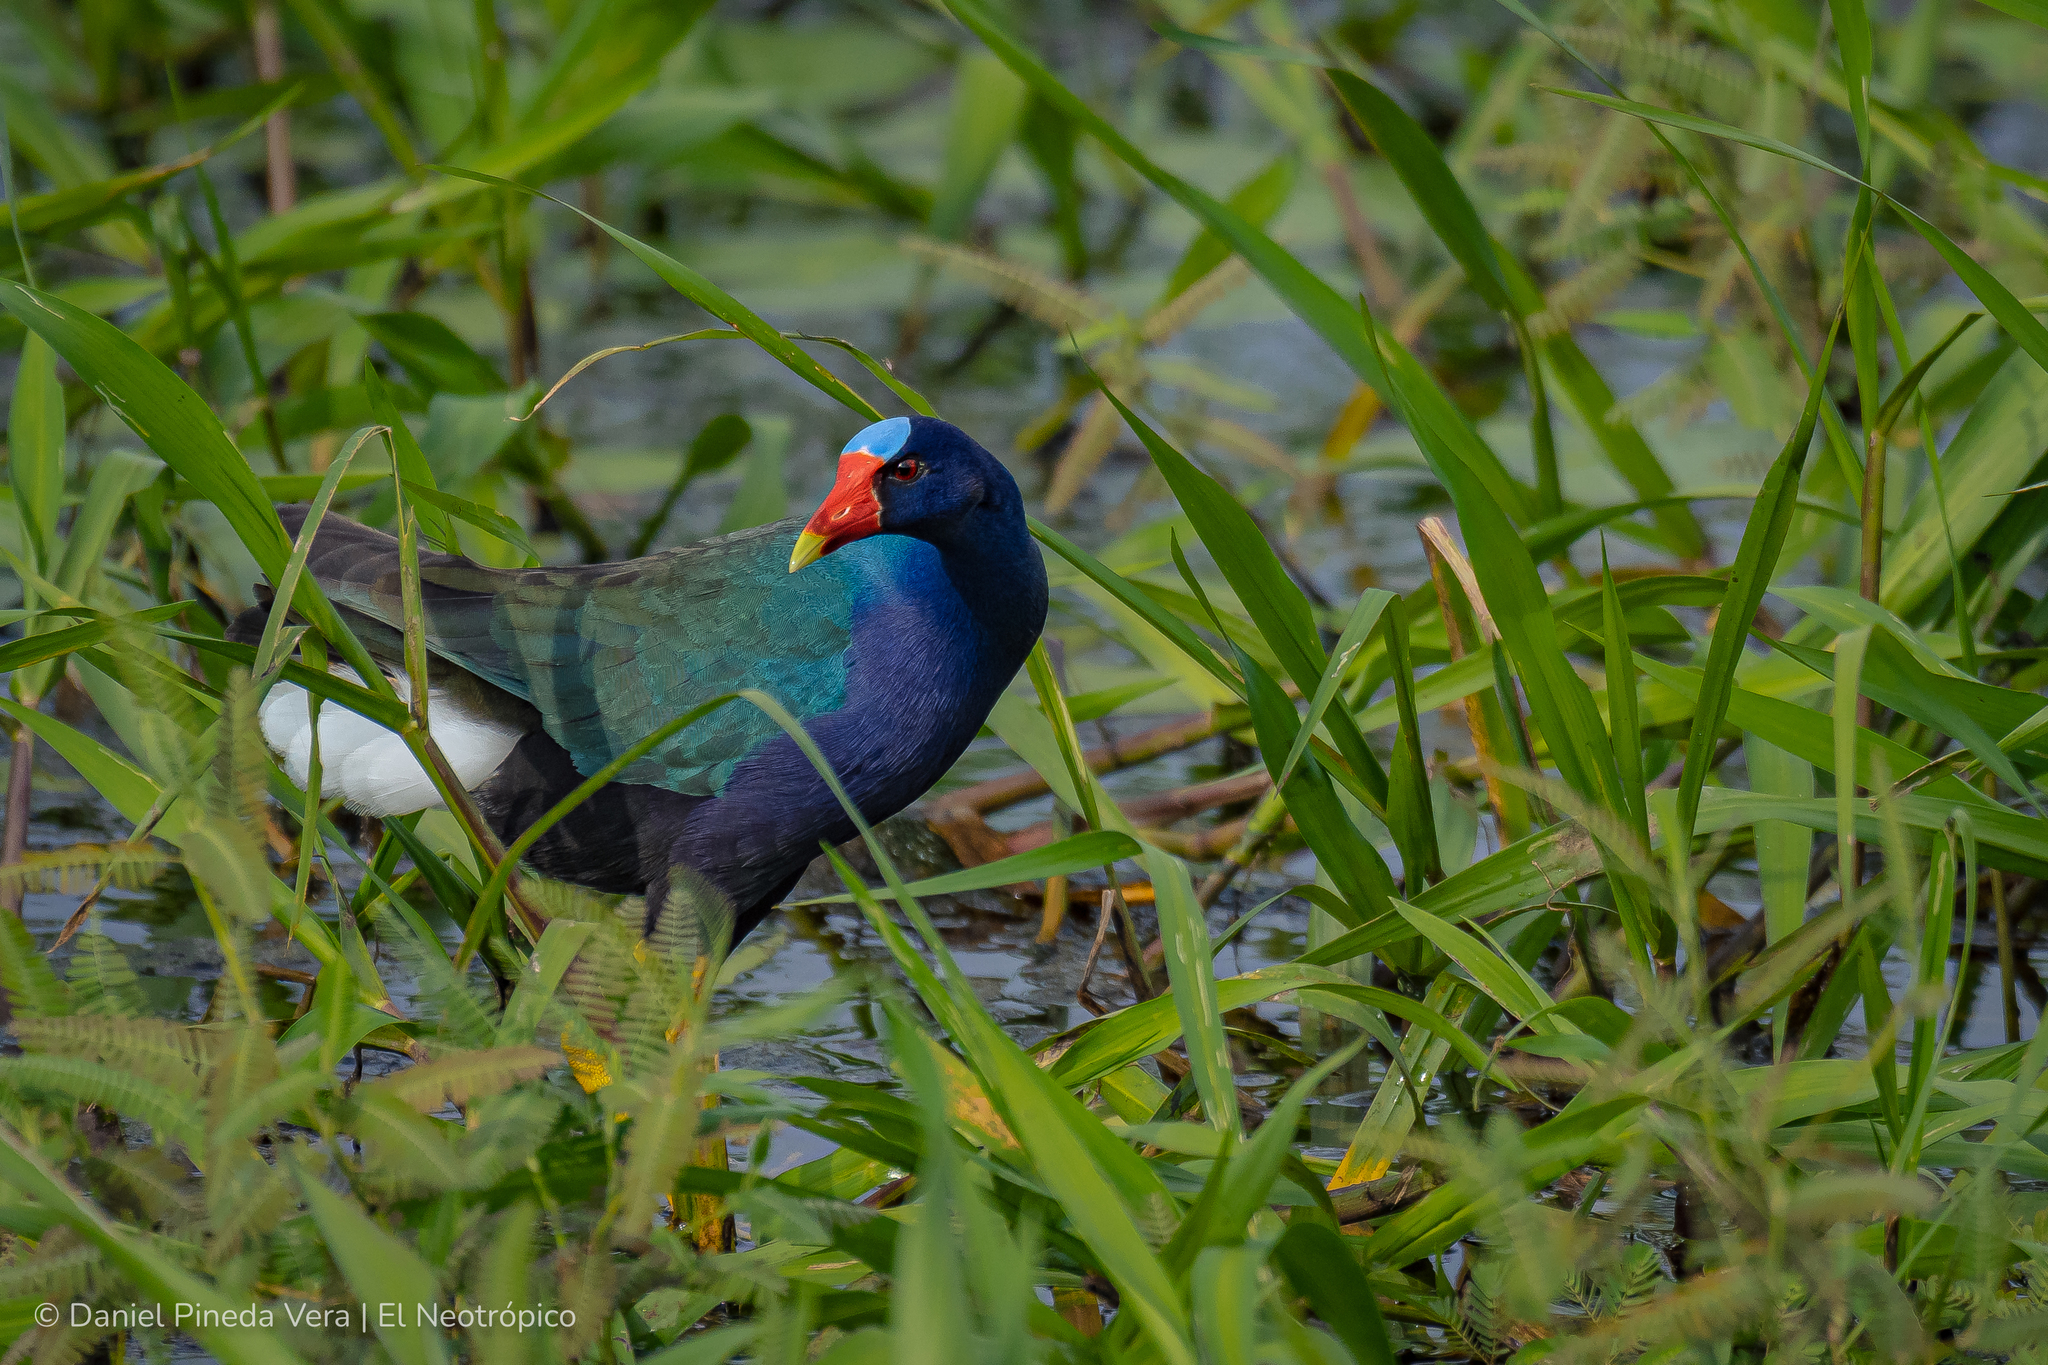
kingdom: Animalia
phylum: Chordata
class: Aves
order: Gruiformes
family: Rallidae
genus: Porphyrio
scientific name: Porphyrio martinica
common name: Purple gallinule
